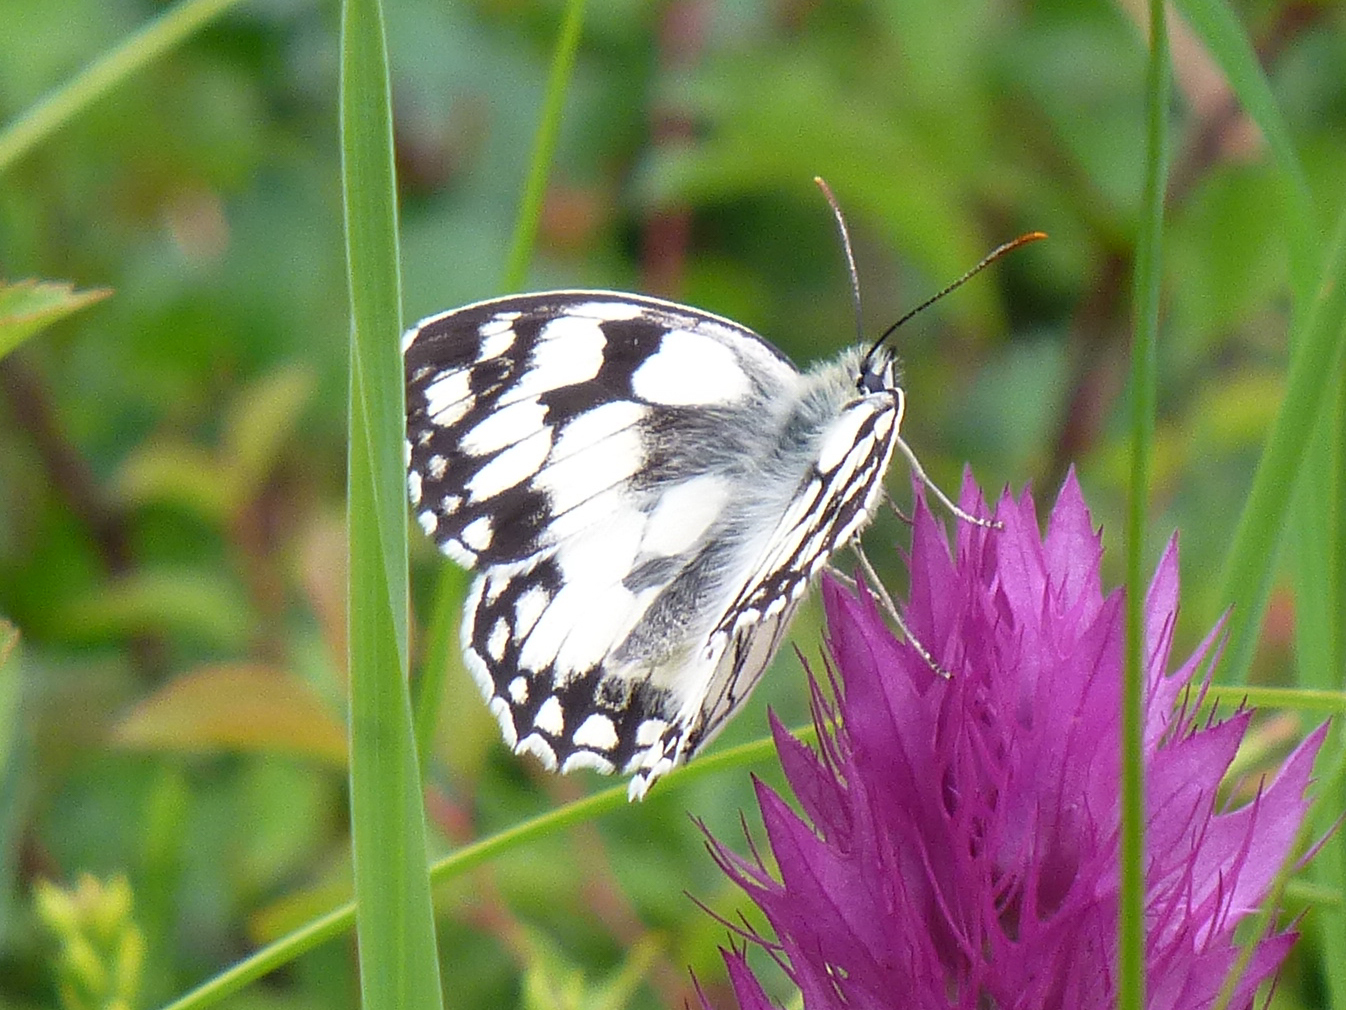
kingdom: Animalia
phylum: Arthropoda
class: Insecta
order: Lepidoptera
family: Nymphalidae
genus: Melanargia
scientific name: Melanargia galathea
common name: Marbled white
